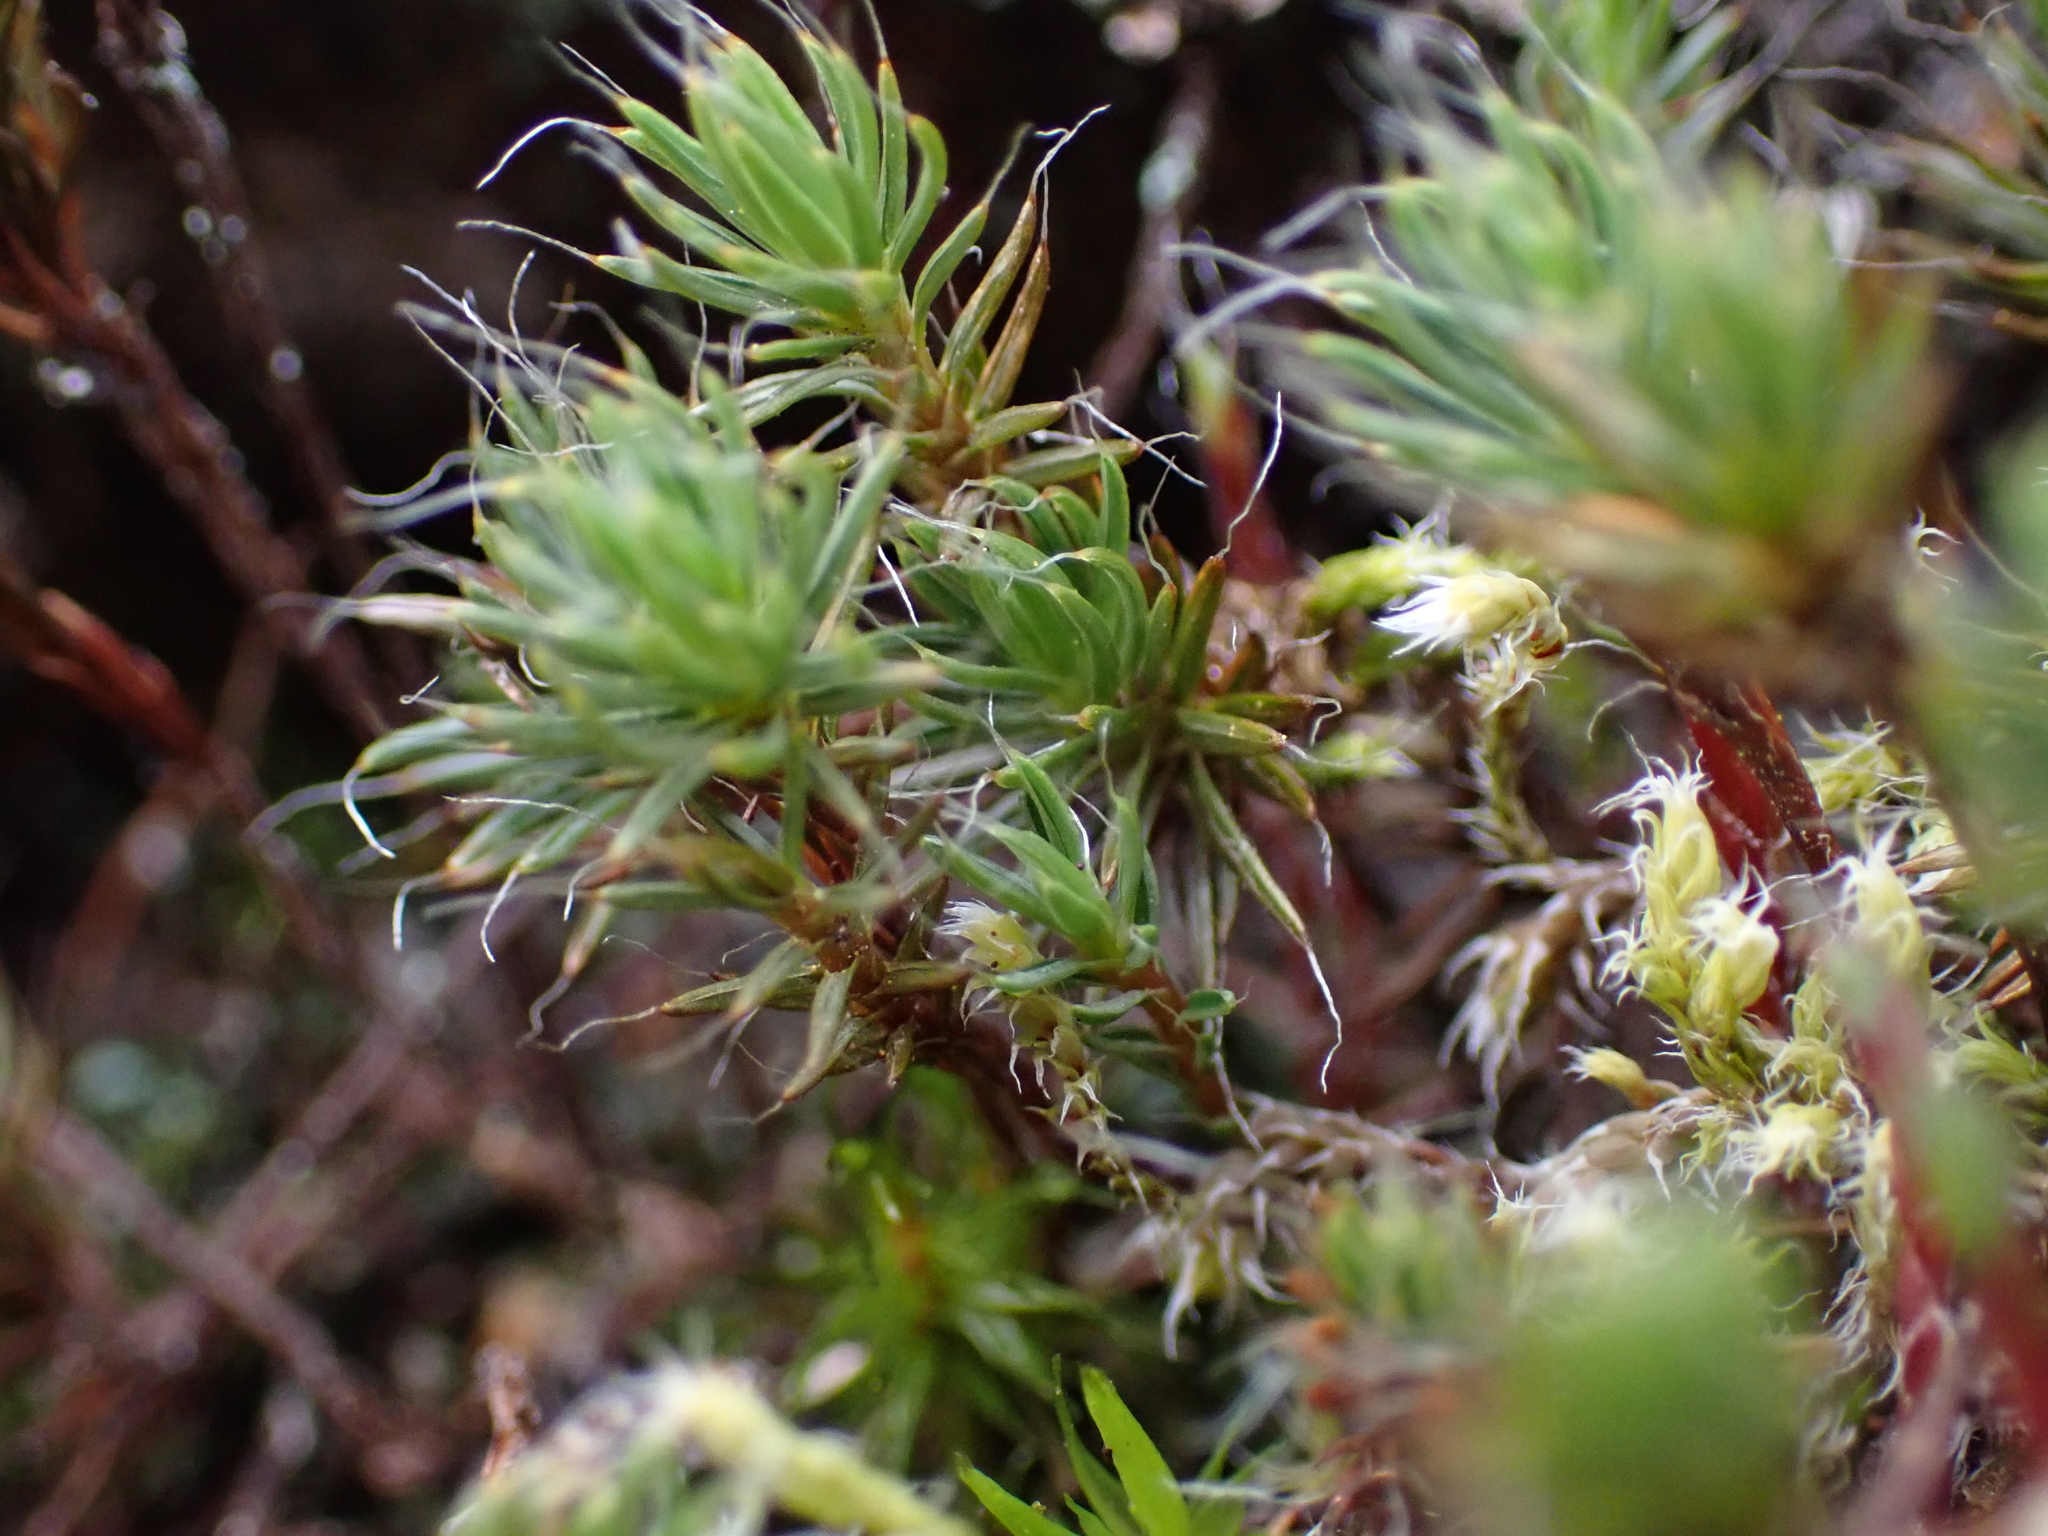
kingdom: Plantae
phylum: Bryophyta
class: Polytrichopsida
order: Polytrichales
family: Polytrichaceae
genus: Polytrichum
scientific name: Polytrichum piliferum
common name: Bristly haircap
